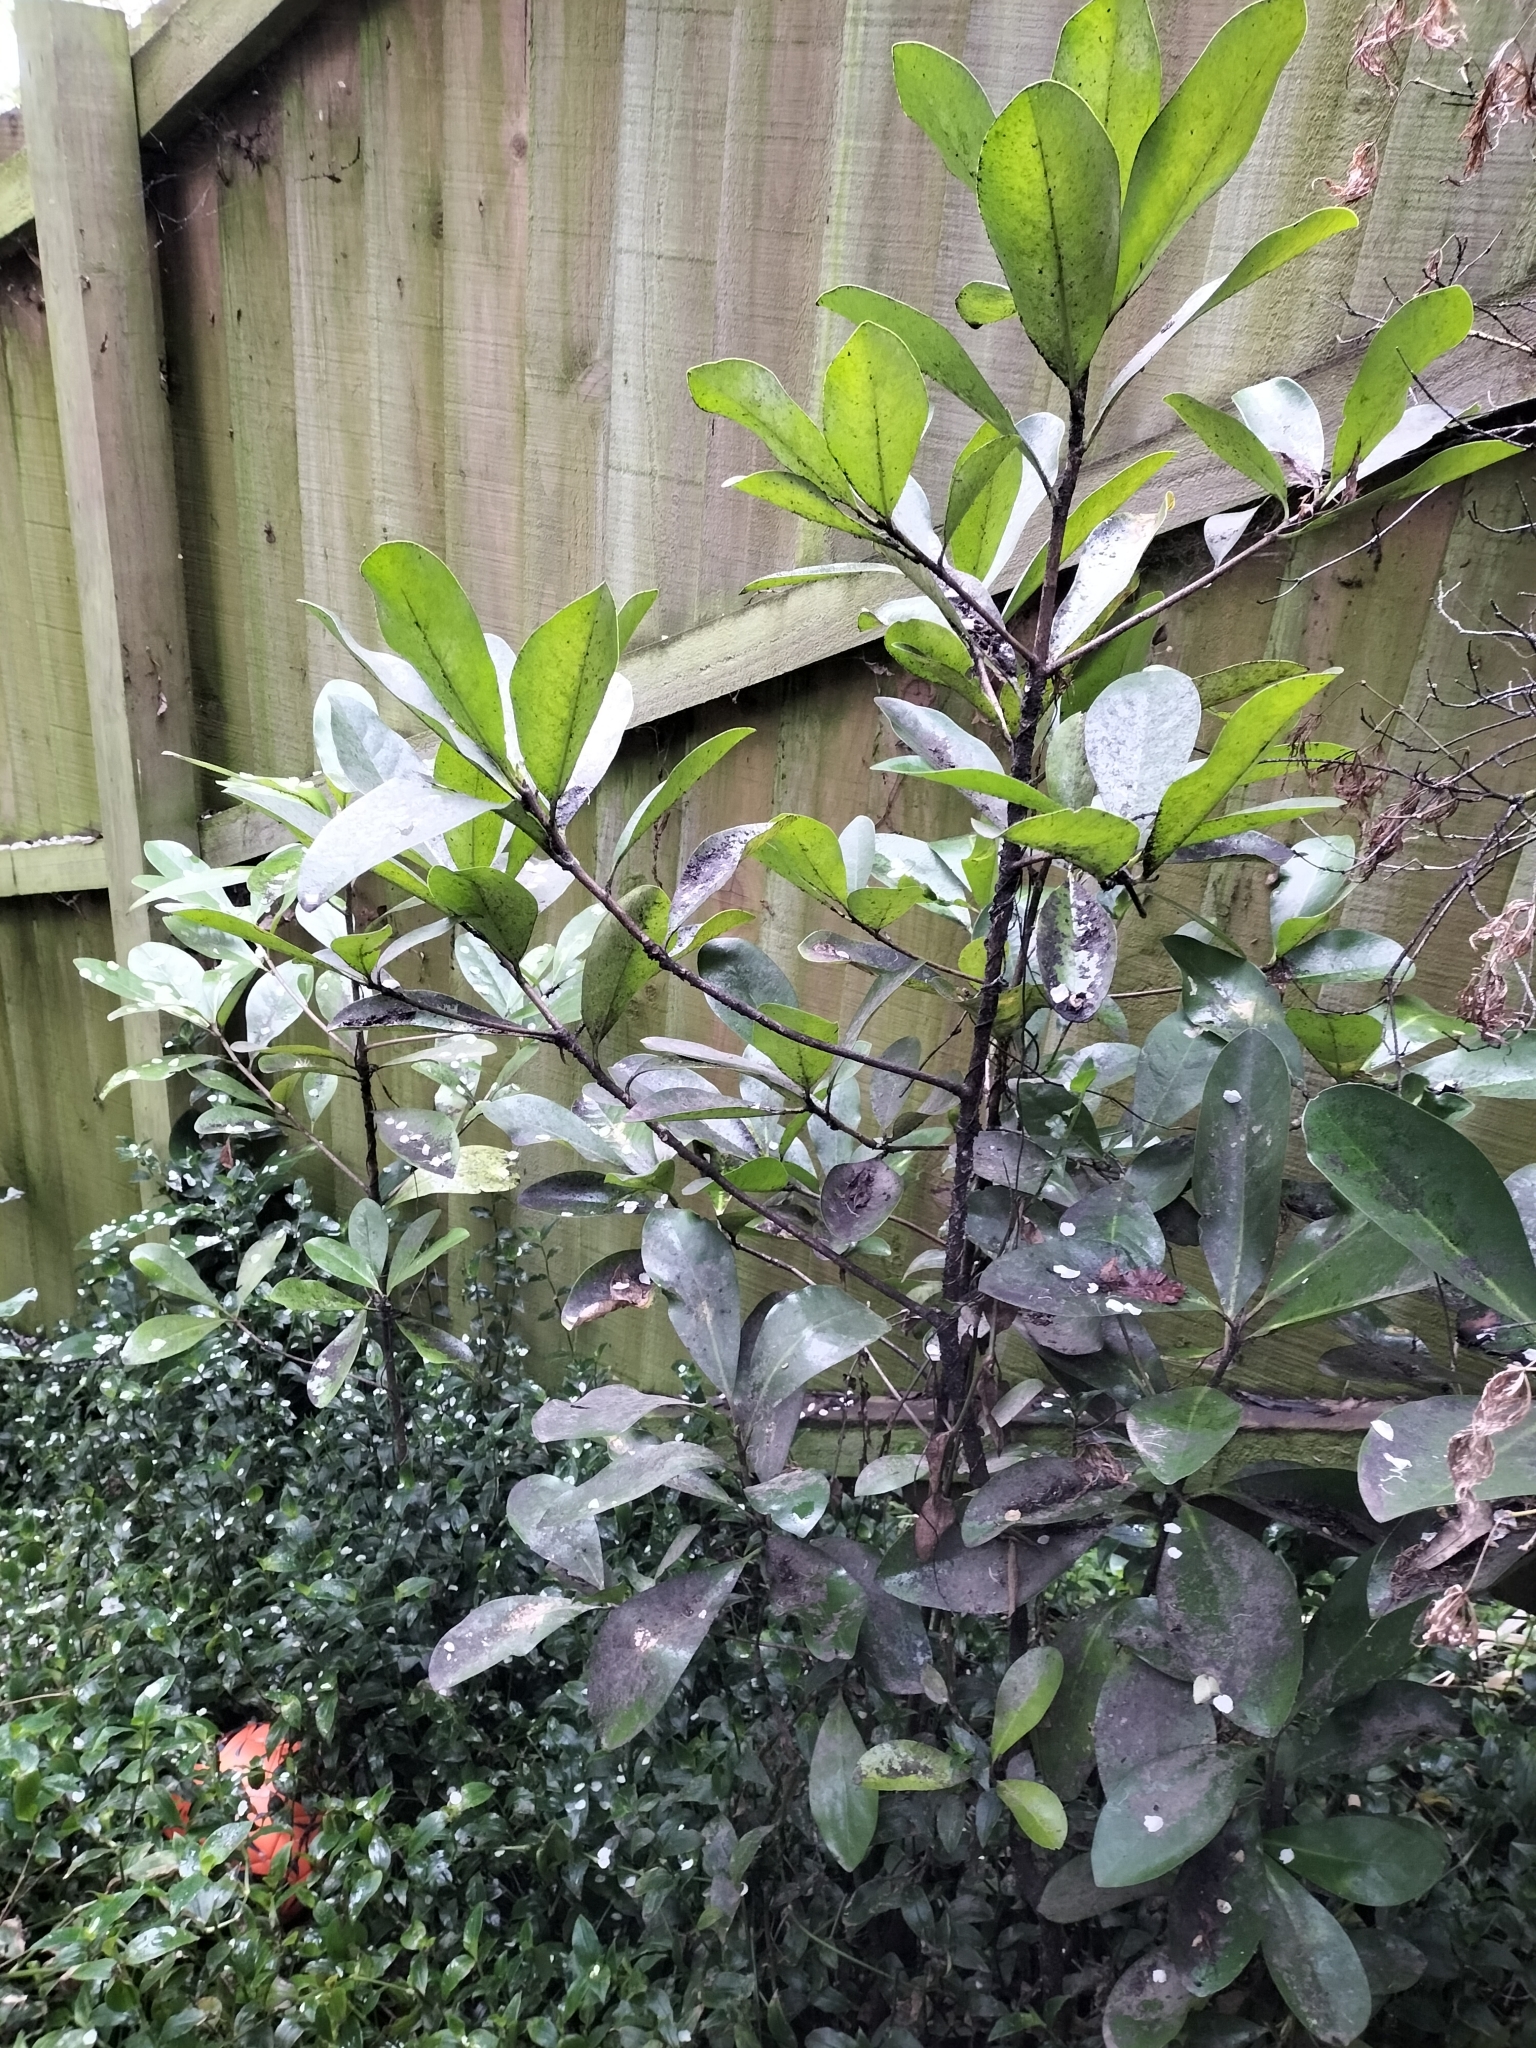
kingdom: Plantae
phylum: Tracheophyta
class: Magnoliopsida
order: Cucurbitales
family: Corynocarpaceae
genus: Corynocarpus
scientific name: Corynocarpus laevigatus
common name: New zealand laurel
